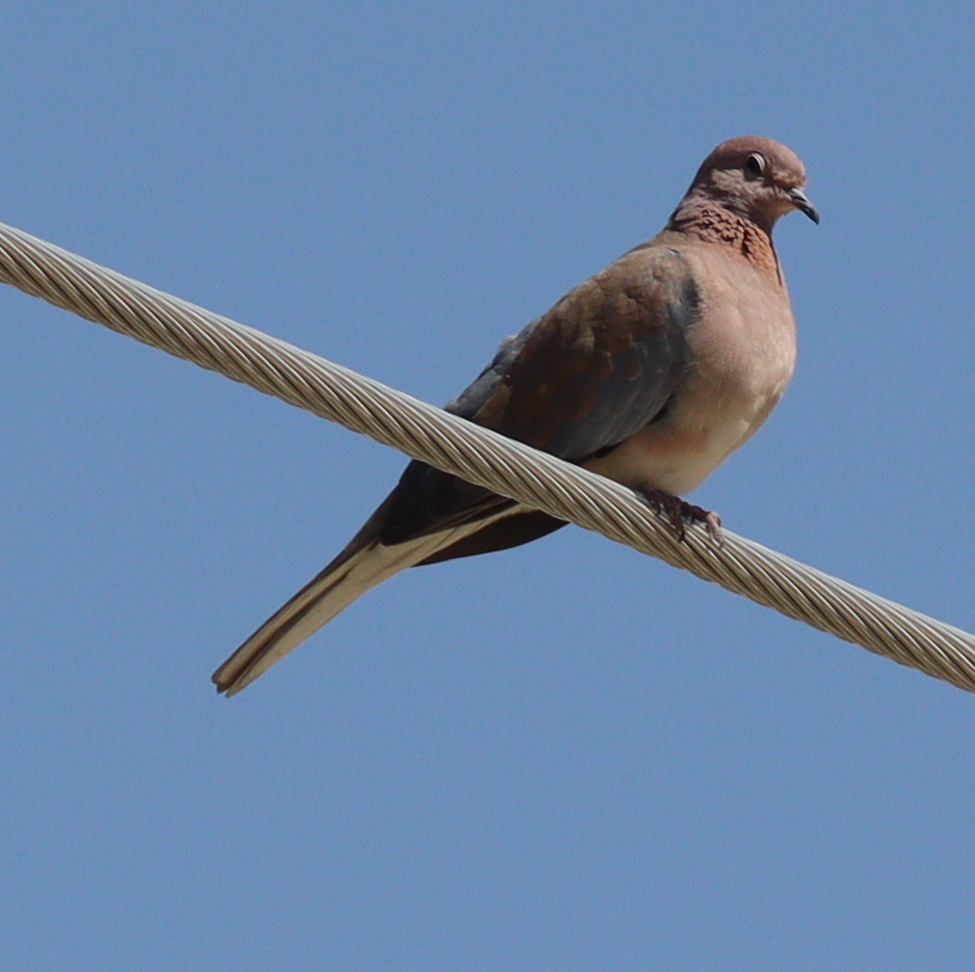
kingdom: Animalia
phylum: Chordata
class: Aves
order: Columbiformes
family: Columbidae
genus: Spilopelia
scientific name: Spilopelia senegalensis
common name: Laughing dove
